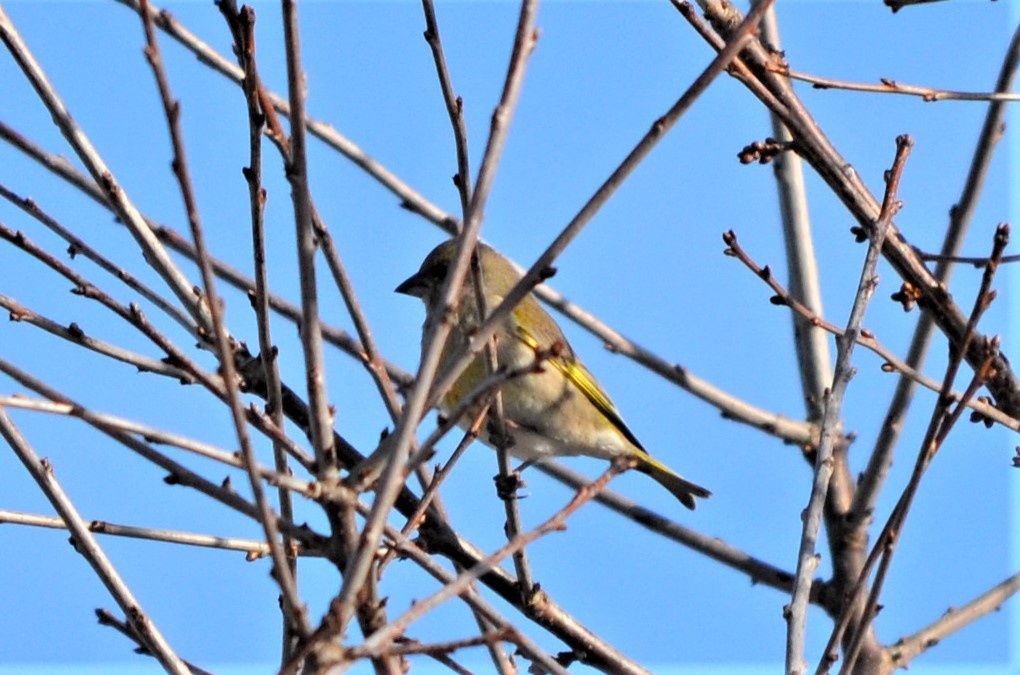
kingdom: Plantae
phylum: Tracheophyta
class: Liliopsida
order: Poales
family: Poaceae
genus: Chloris
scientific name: Chloris chloris
